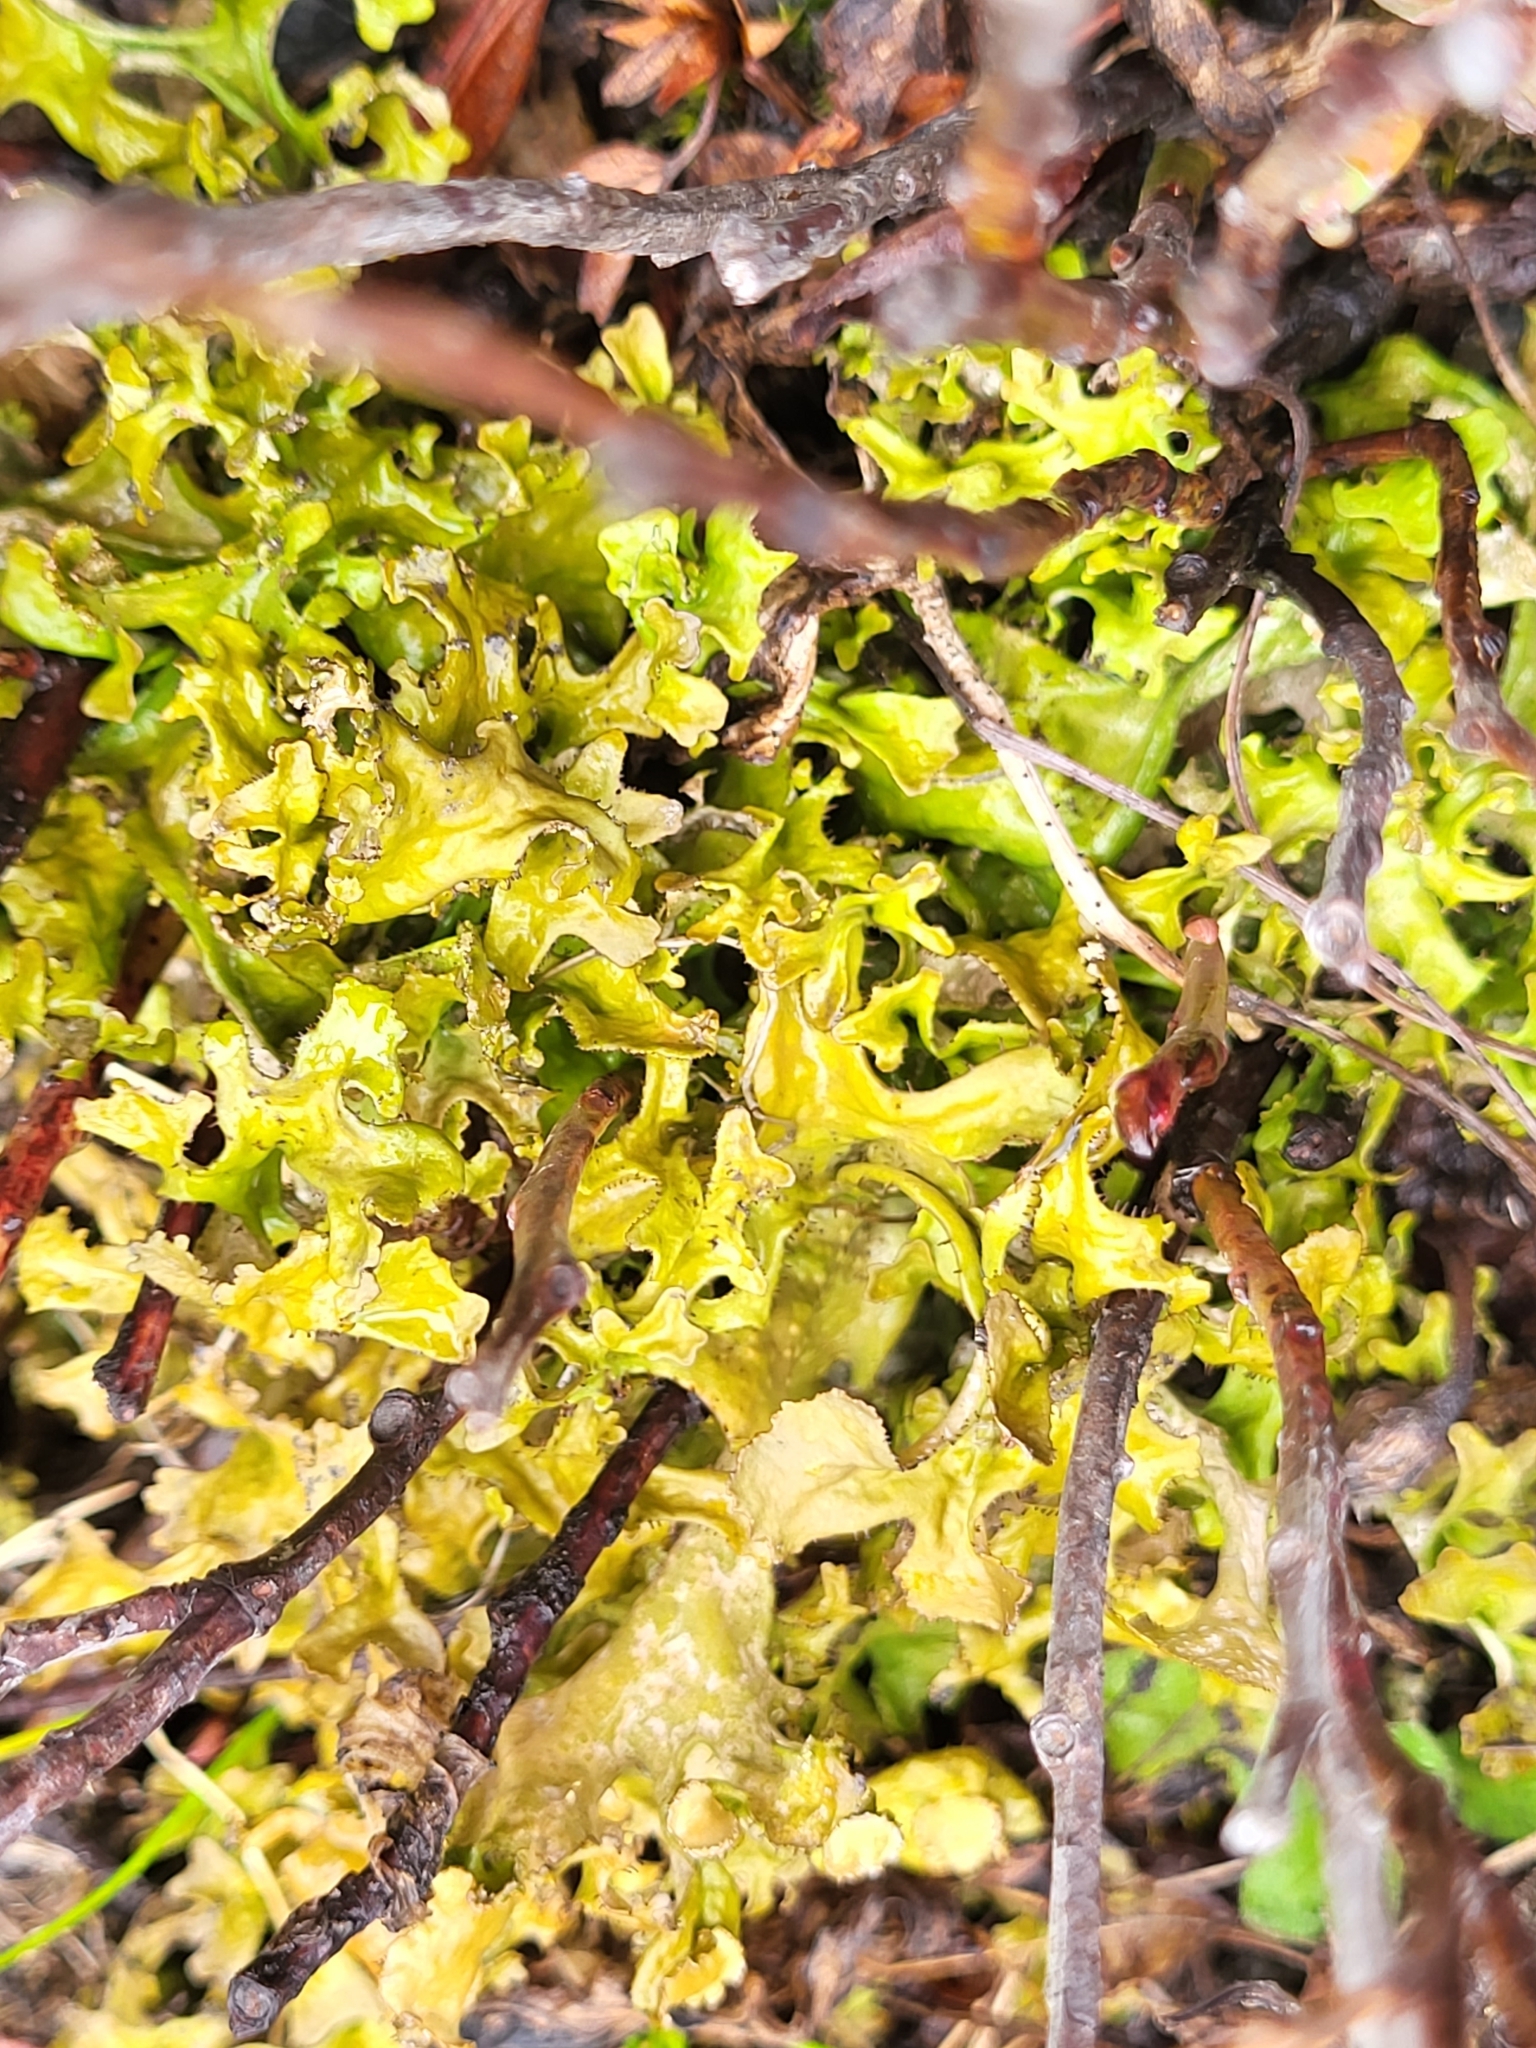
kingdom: Fungi
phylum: Ascomycota
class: Lecanoromycetes
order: Lecanorales
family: Parmeliaceae
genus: Cetraria
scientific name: Cetraria islandica
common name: Iceland lichen
